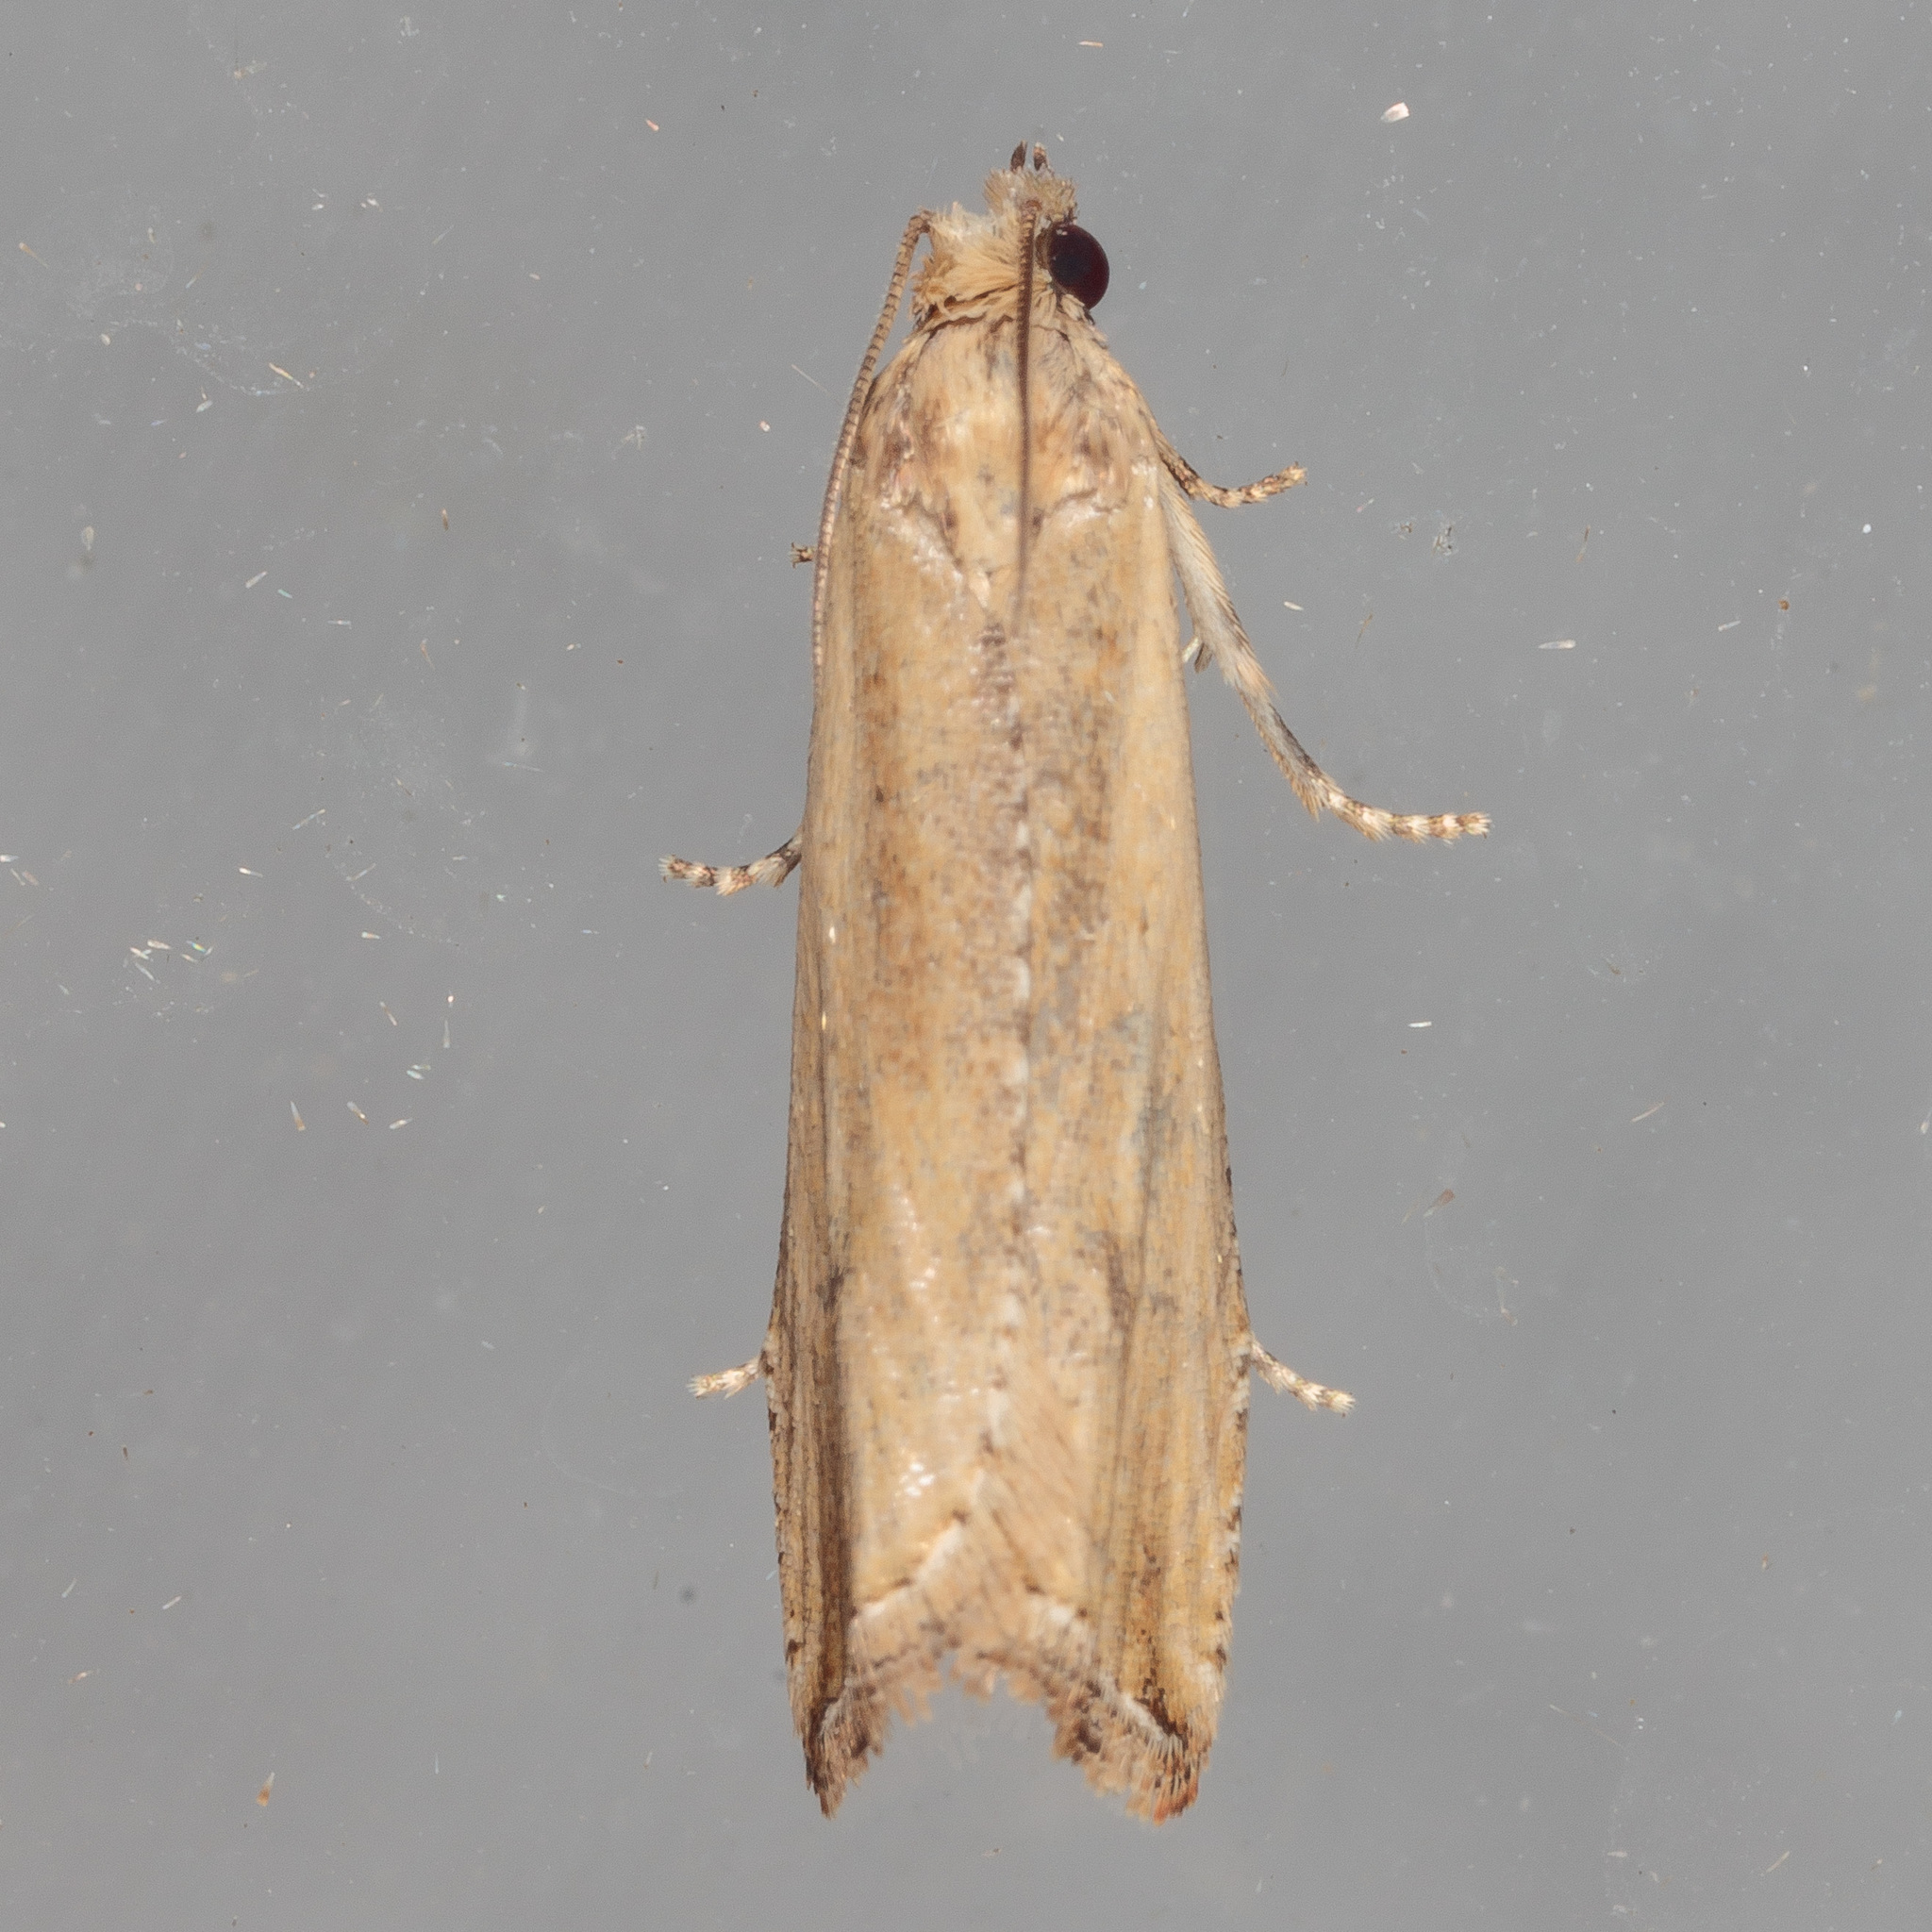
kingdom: Animalia
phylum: Arthropoda
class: Insecta
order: Lepidoptera
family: Tortricidae
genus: Bactra
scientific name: Bactra verutana
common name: Javelin moth
